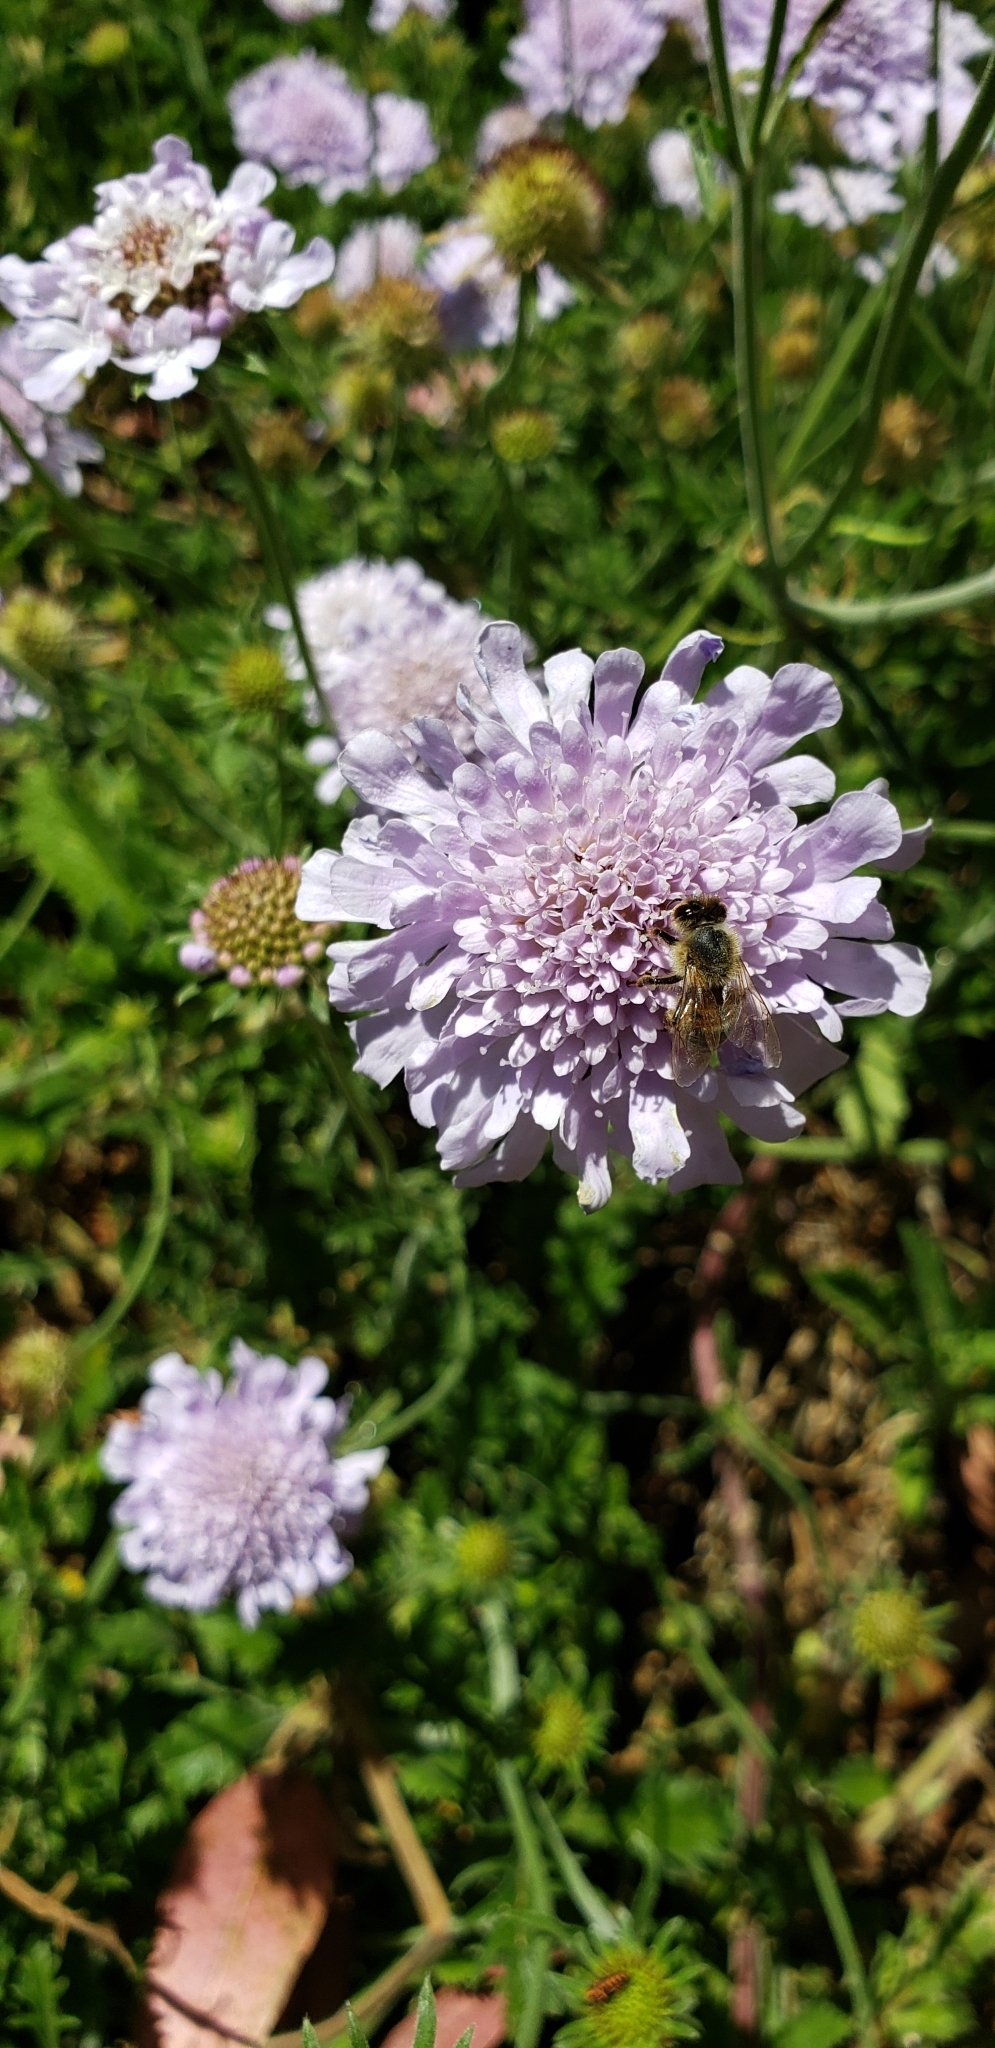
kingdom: Animalia
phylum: Arthropoda
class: Insecta
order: Hymenoptera
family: Apidae
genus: Apis
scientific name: Apis mellifera
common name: Honey bee
